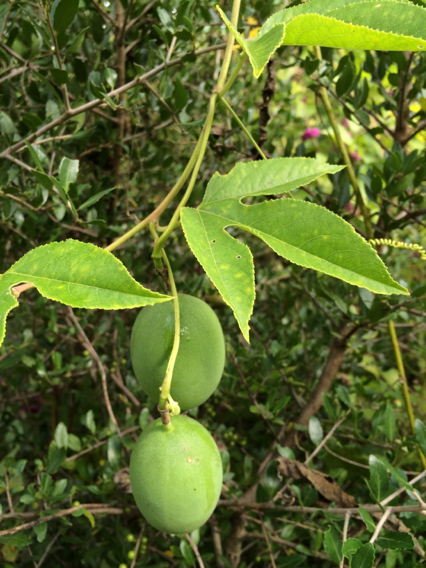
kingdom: Plantae
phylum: Tracheophyta
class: Magnoliopsida
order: Malpighiales
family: Passifloraceae
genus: Passiflora
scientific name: Passiflora incarnata
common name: Apricot-vine
